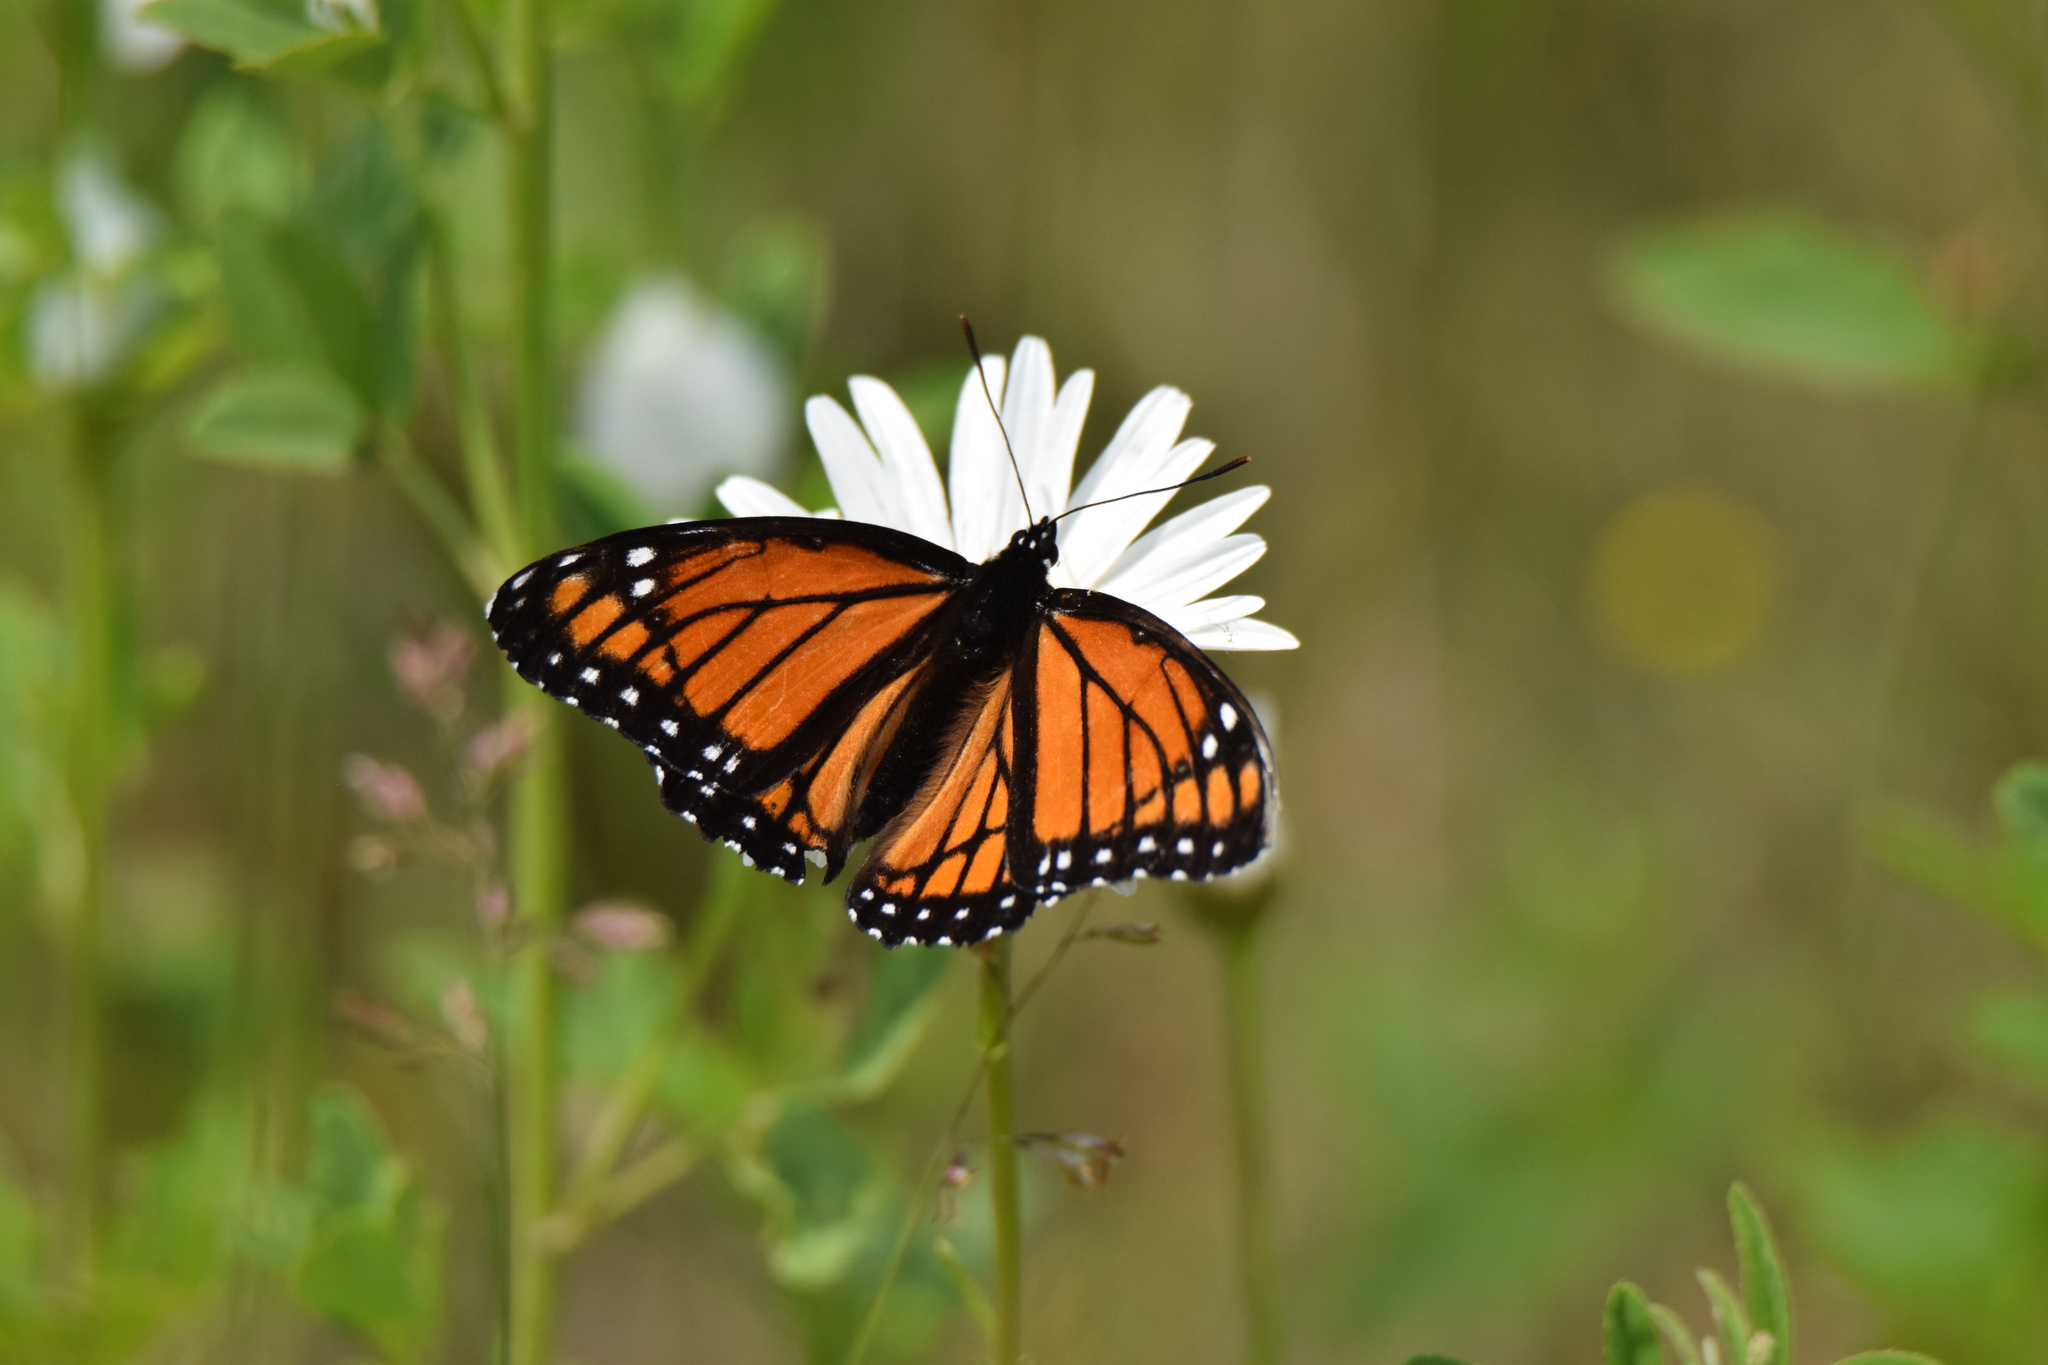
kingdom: Animalia
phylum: Arthropoda
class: Insecta
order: Lepidoptera
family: Nymphalidae
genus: Limenitis
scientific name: Limenitis archippus
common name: Viceroy
